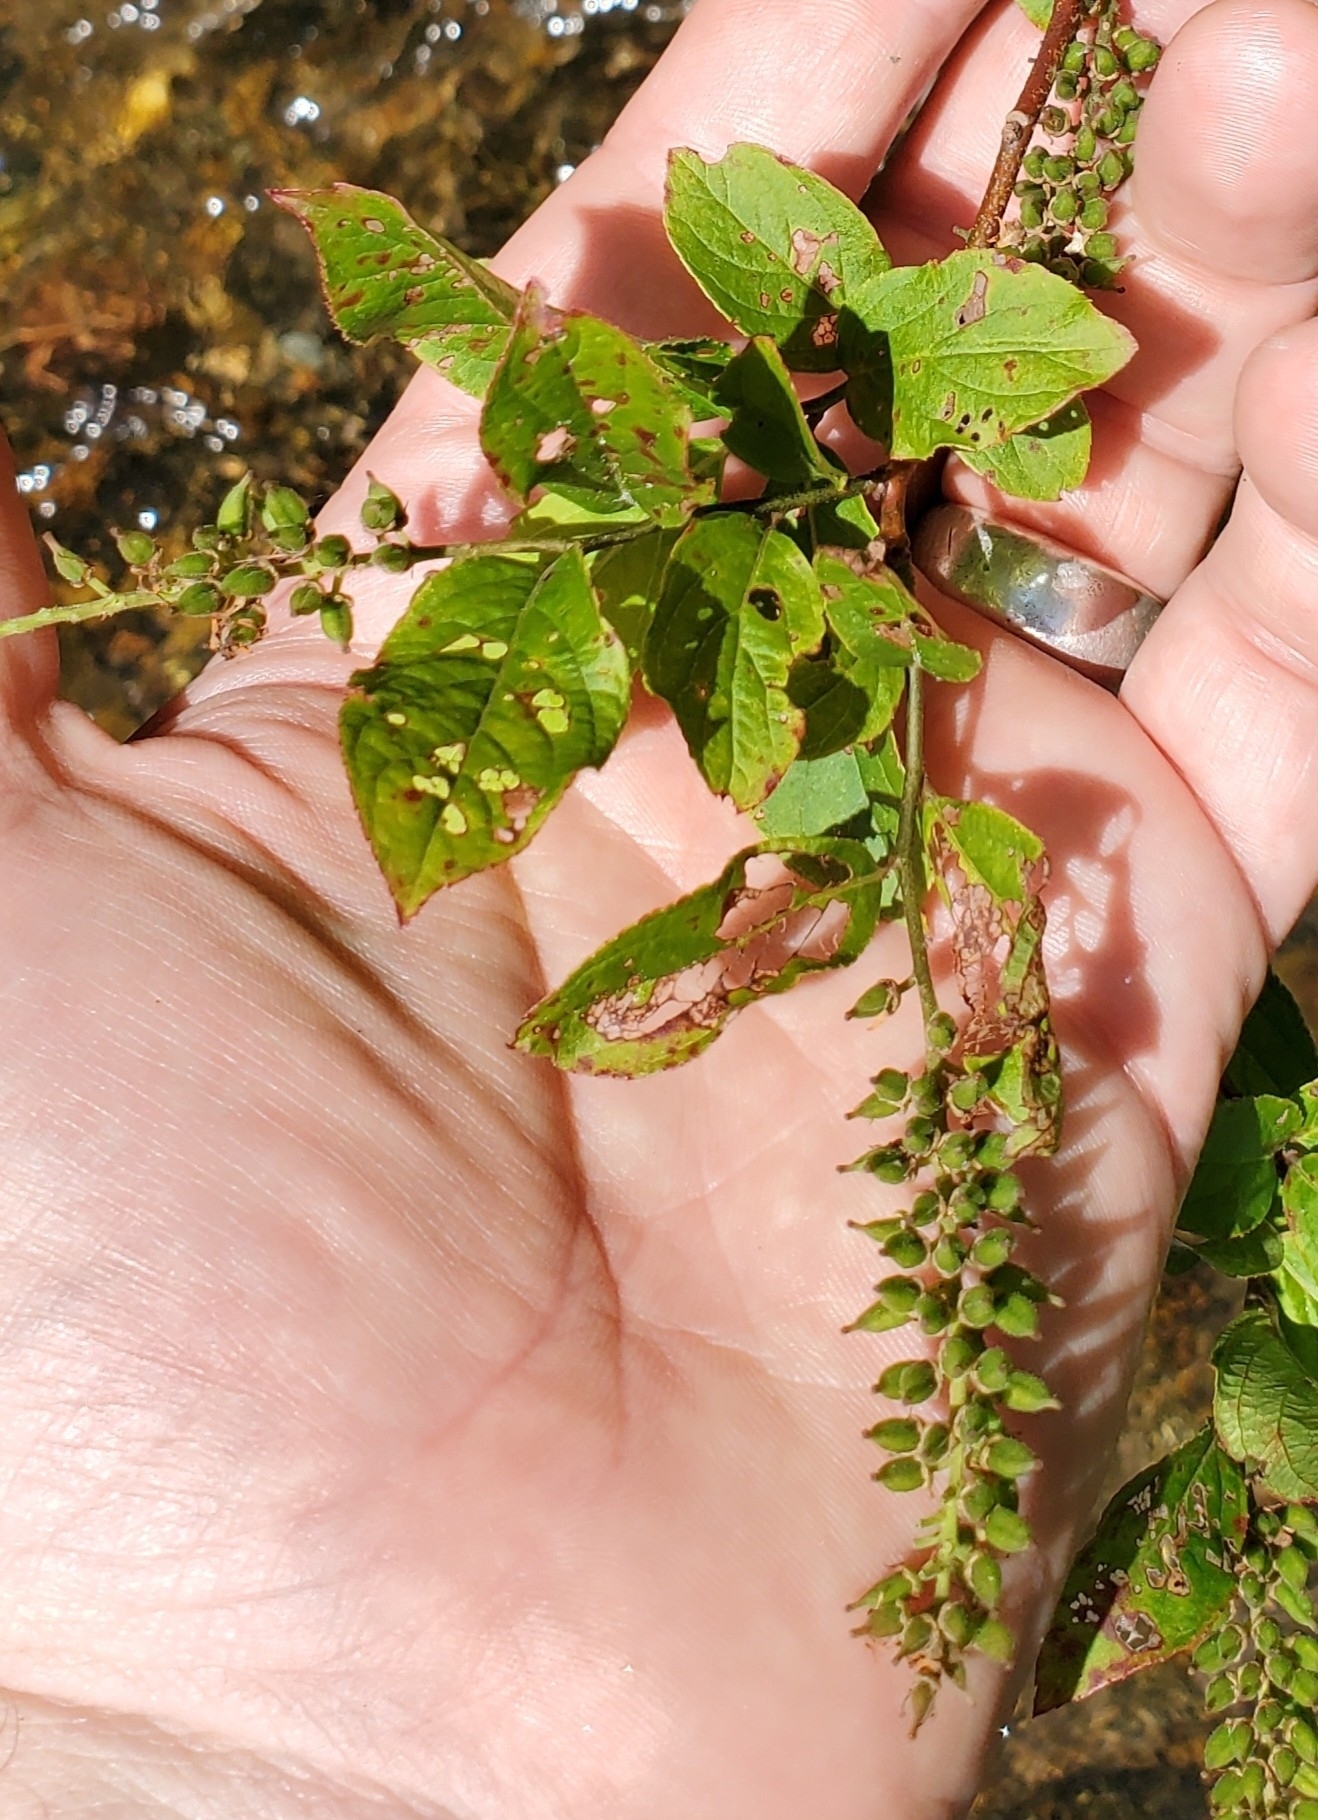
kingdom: Plantae
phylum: Tracheophyta
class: Magnoliopsida
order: Saxifragales
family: Iteaceae
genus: Itea
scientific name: Itea virginica
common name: Sweetspire
